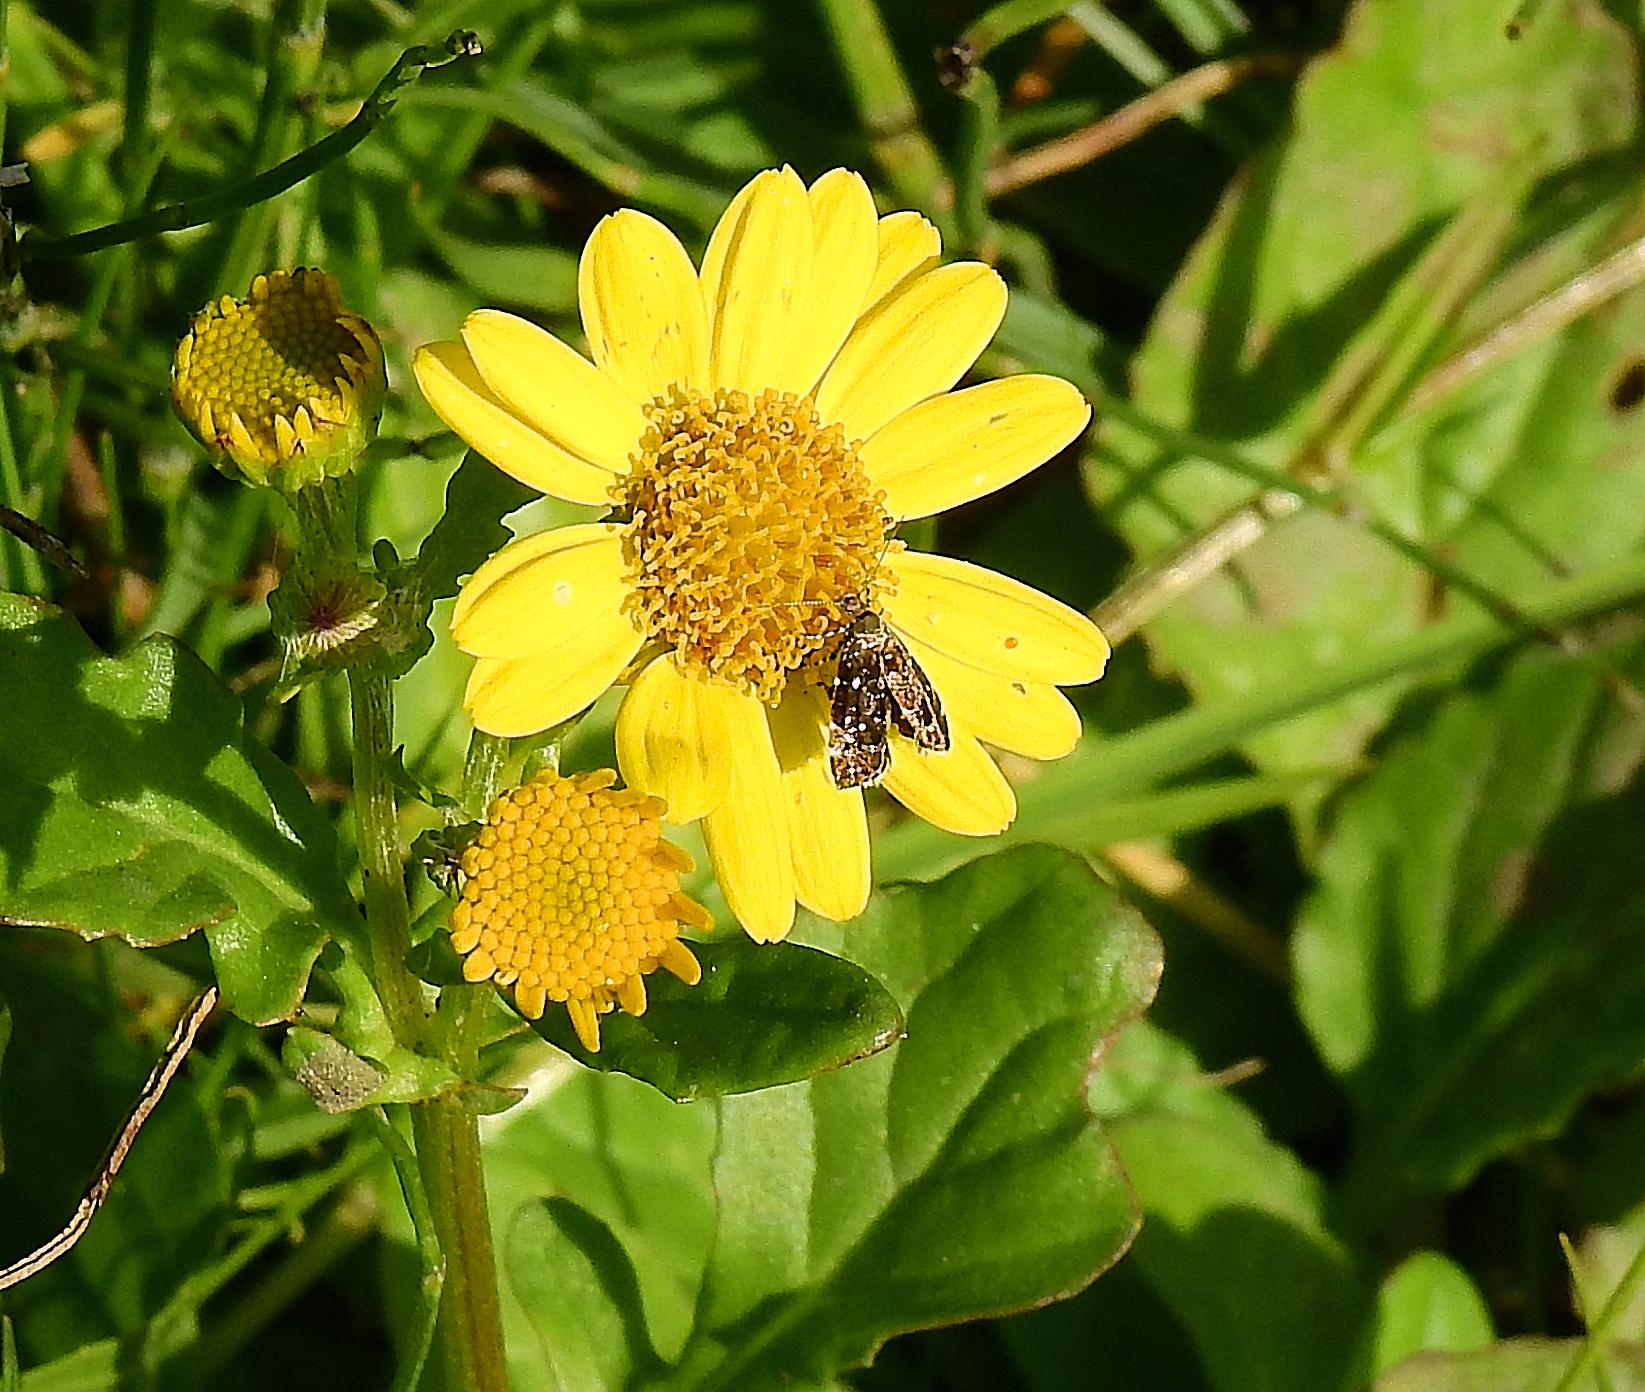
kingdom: Animalia
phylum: Arthropoda
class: Insecta
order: Lepidoptera
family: Choreutidae
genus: Prochoreutis
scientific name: Prochoreutis myllerana
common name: Small metal-mark
